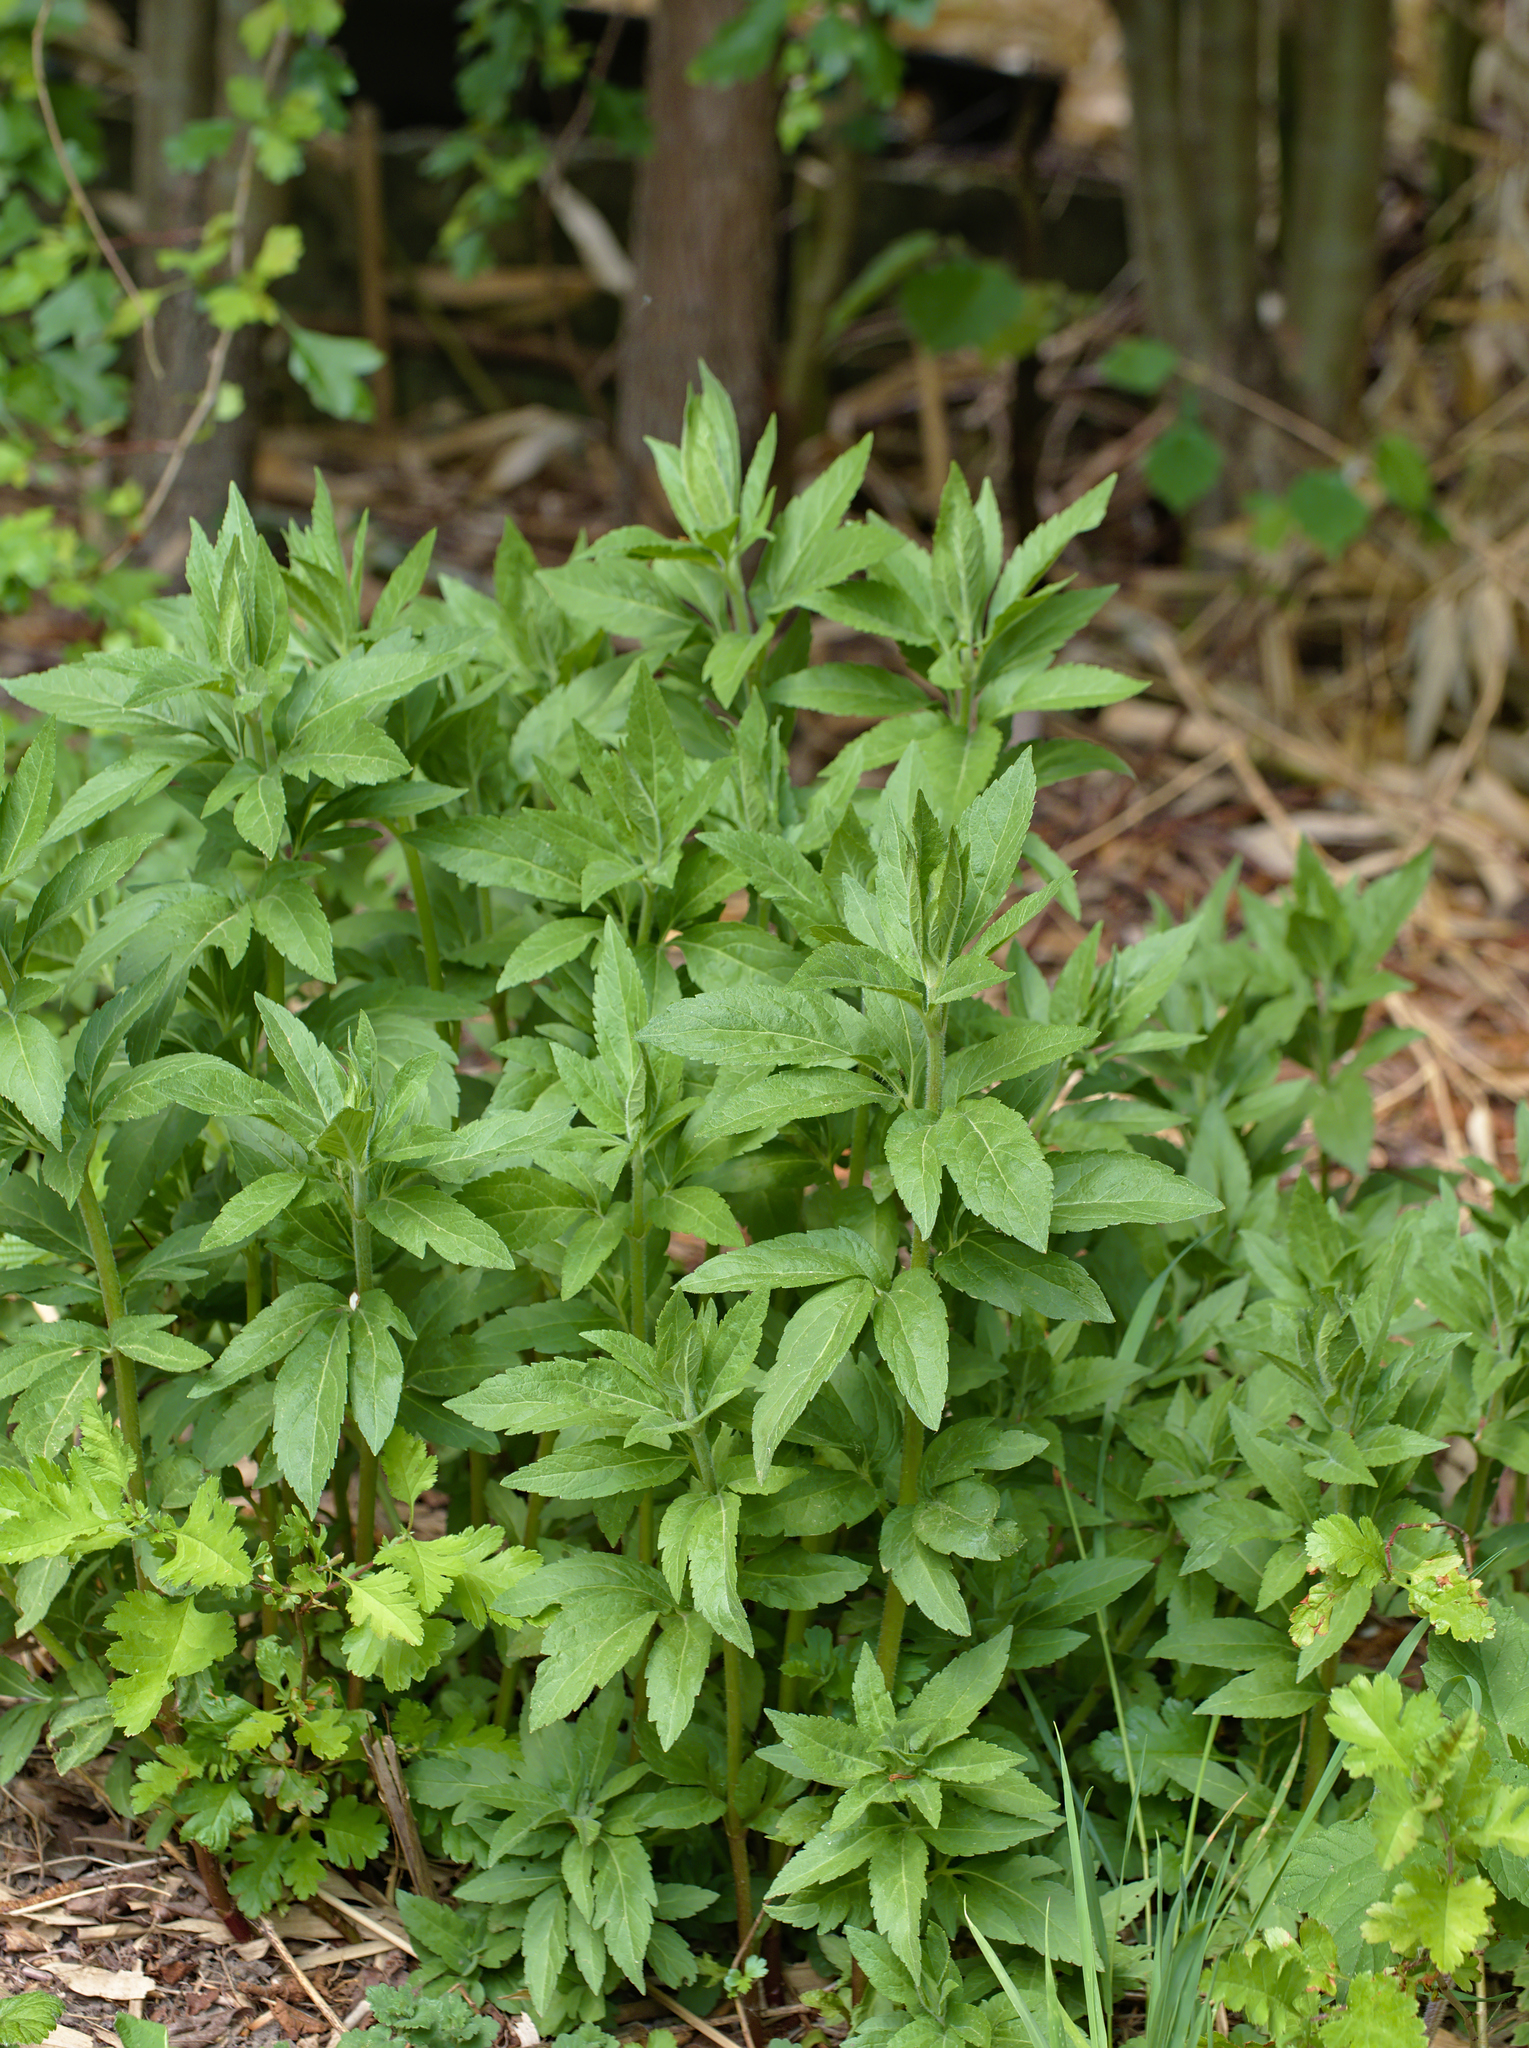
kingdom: Plantae
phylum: Tracheophyta
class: Magnoliopsida
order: Asterales
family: Asteraceae
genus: Eupatorium
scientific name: Eupatorium cannabinum
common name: Hemp-agrimony
